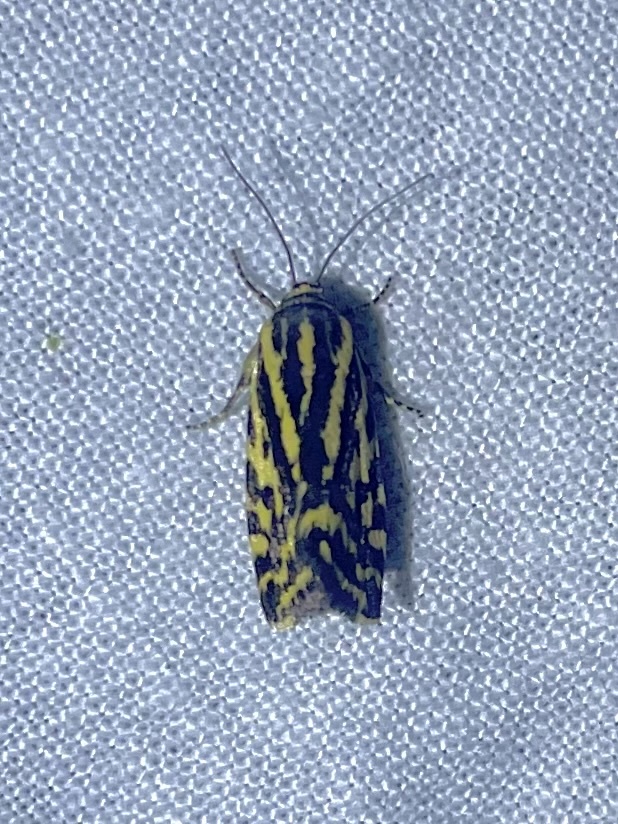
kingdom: Animalia
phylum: Arthropoda
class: Insecta
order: Lepidoptera
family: Noctuidae
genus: Acontia
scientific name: Acontia trabealis
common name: Spotted sulphur
